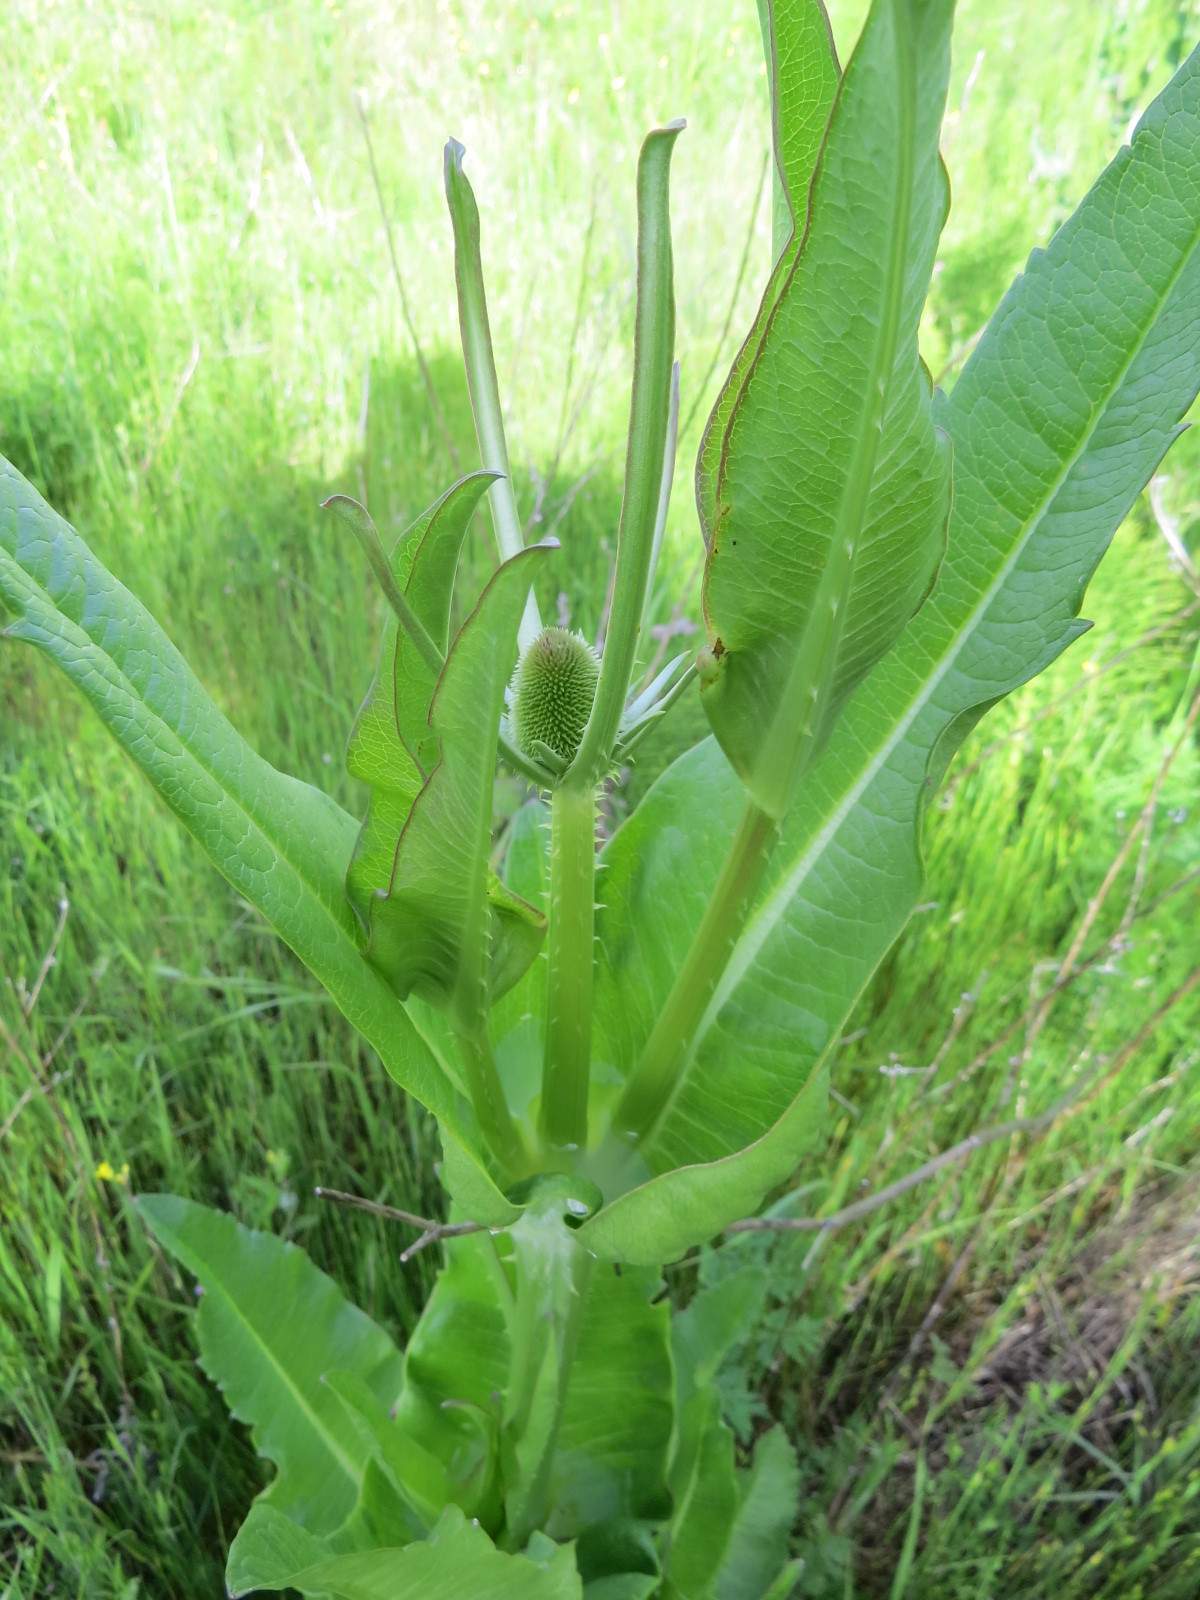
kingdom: Plantae
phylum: Tracheophyta
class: Magnoliopsida
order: Dipsacales
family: Caprifoliaceae
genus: Dipsacus
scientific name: Dipsacus sativus
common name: Fuller's teasel
